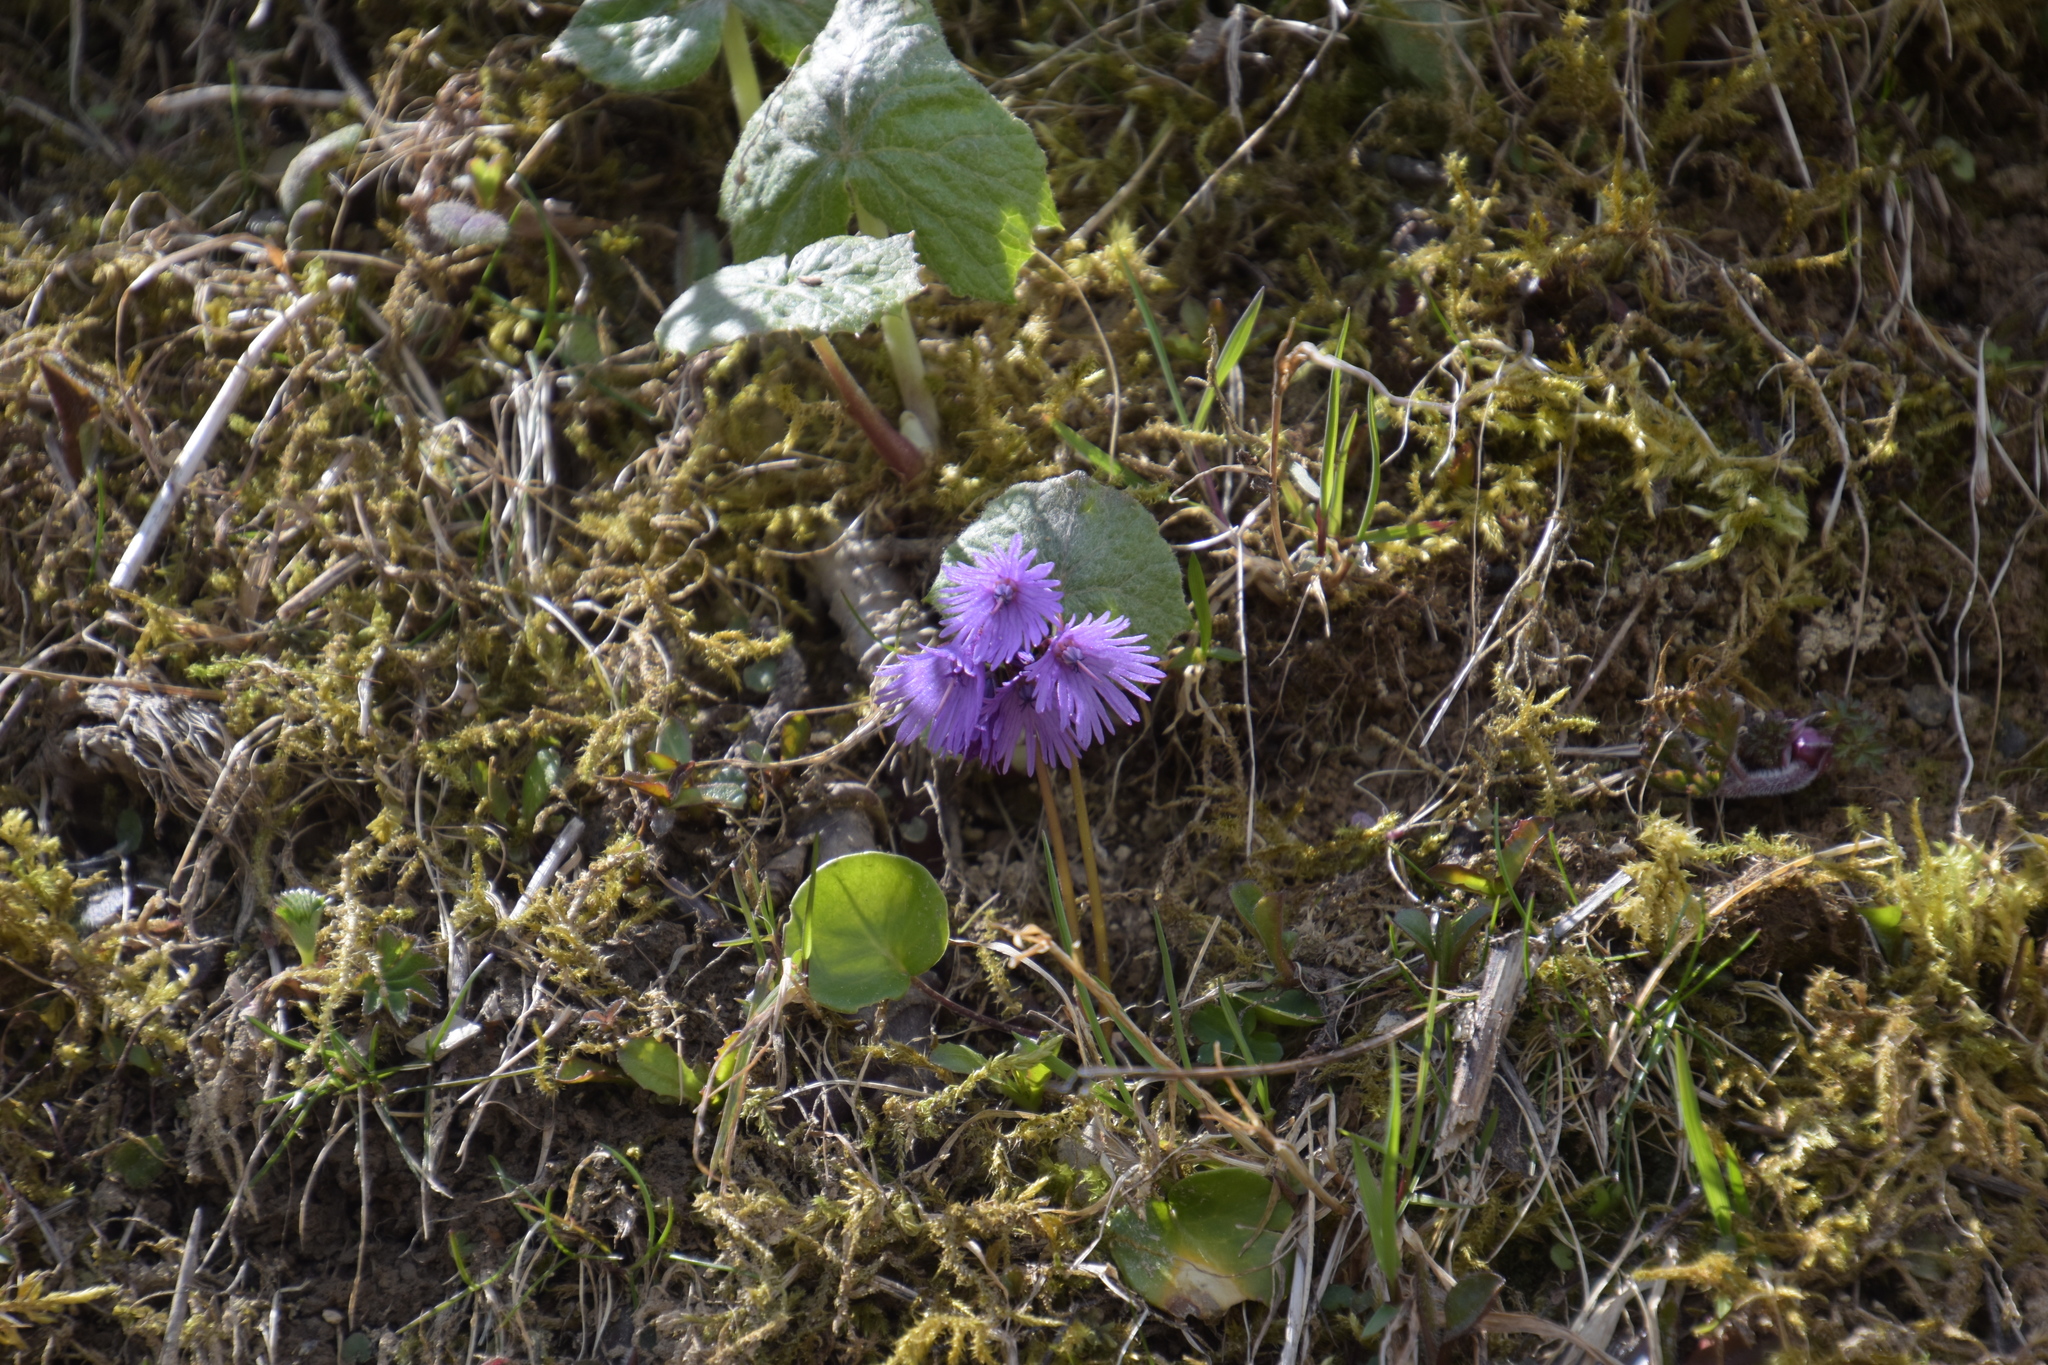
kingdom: Plantae
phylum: Tracheophyta
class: Magnoliopsida
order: Ericales
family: Primulaceae
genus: Soldanella
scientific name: Soldanella alpina
